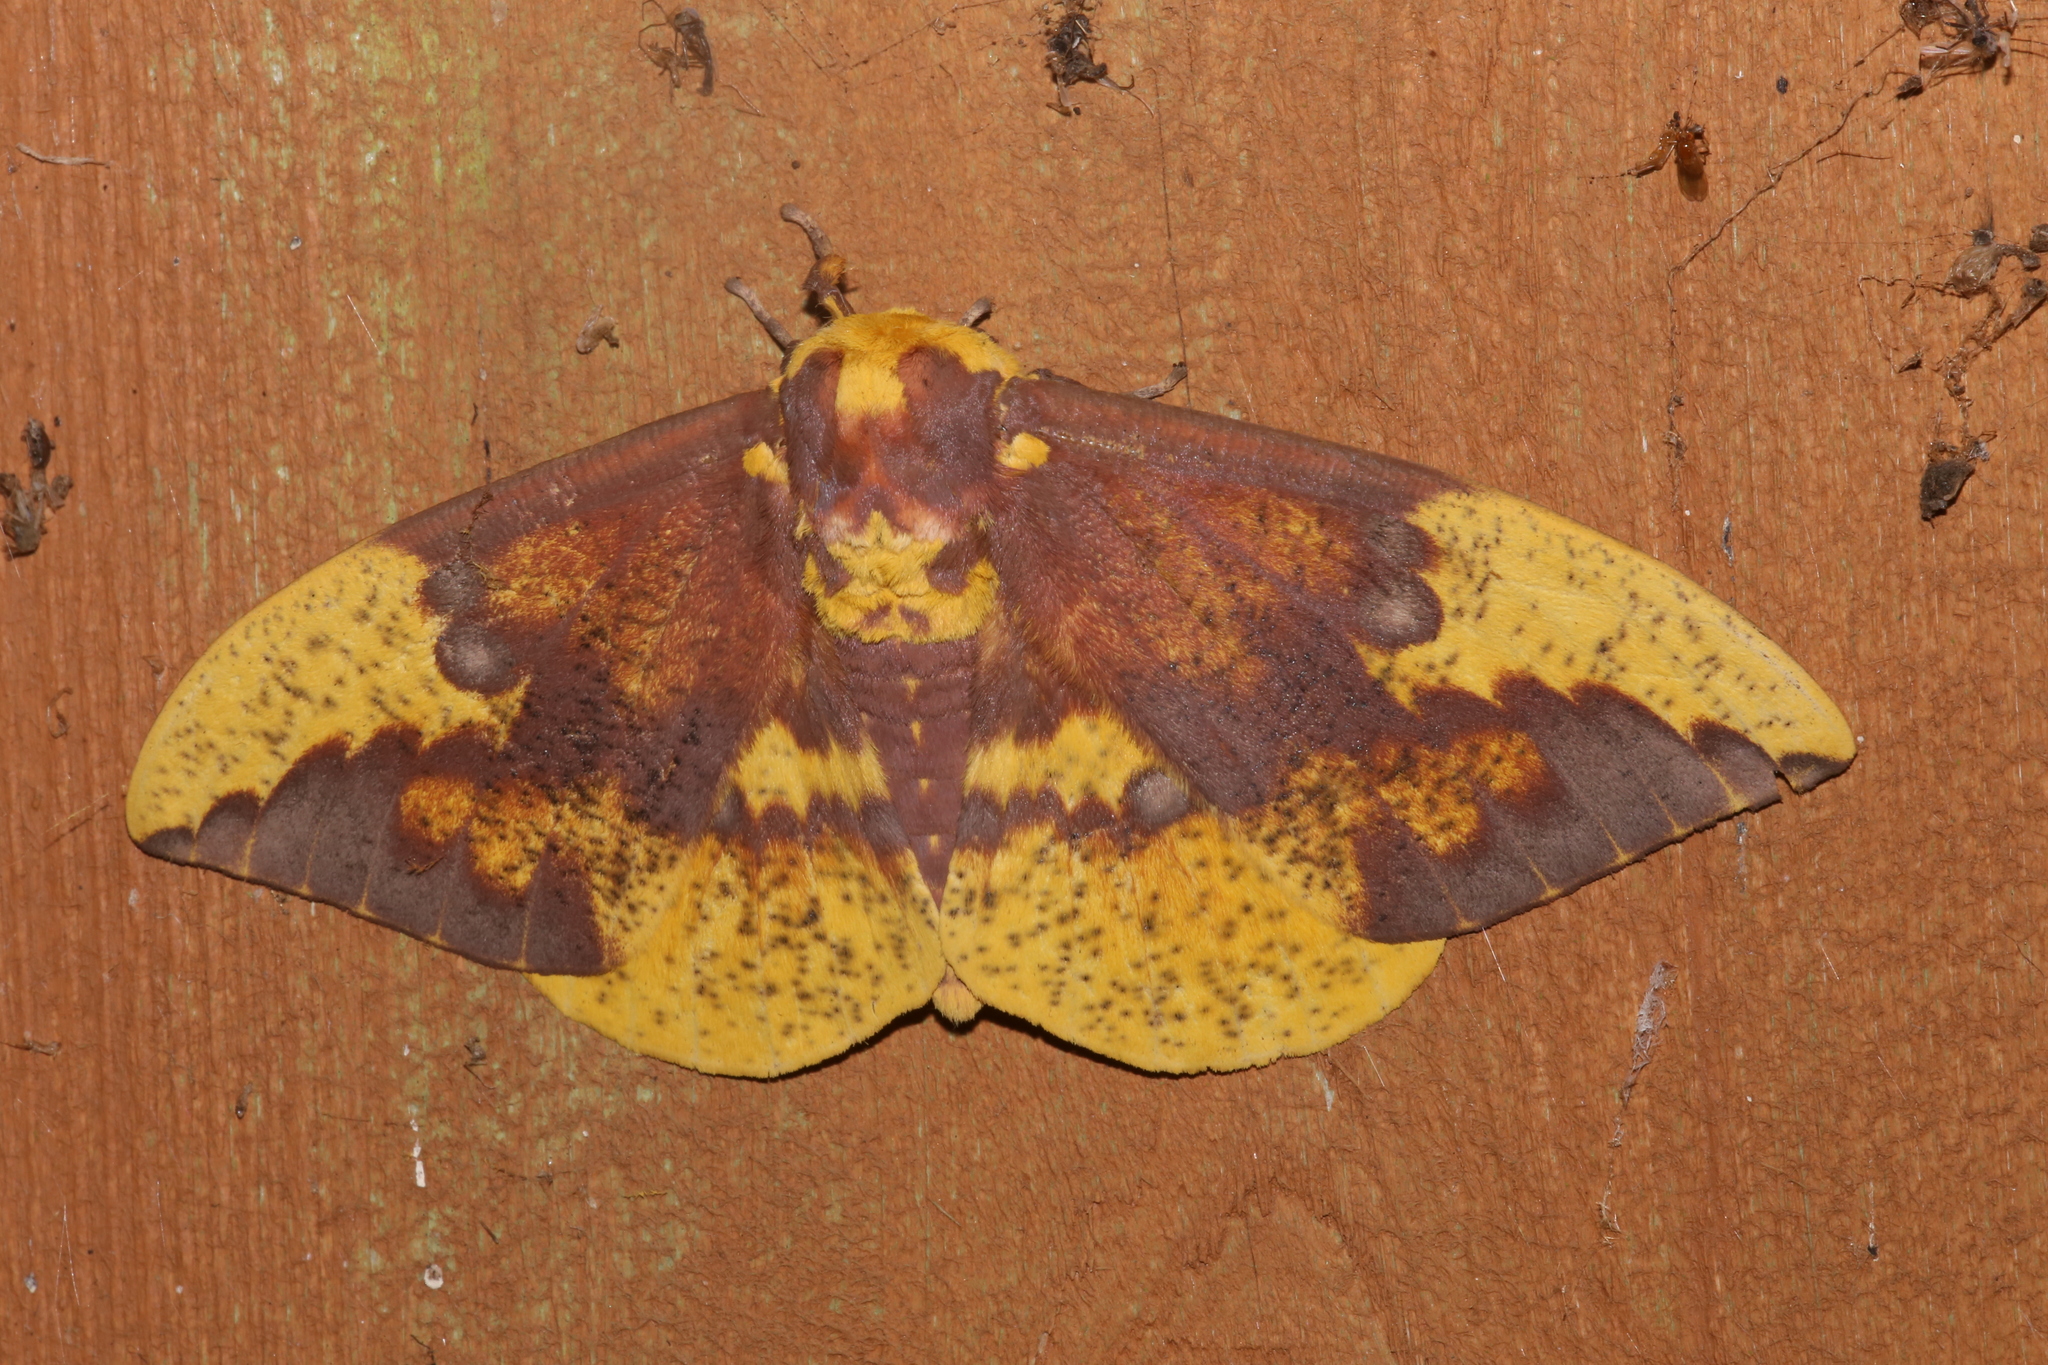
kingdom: Animalia
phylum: Arthropoda
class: Insecta
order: Lepidoptera
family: Saturniidae
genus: Eacles
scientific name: Eacles imperialis
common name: Imperial moth
